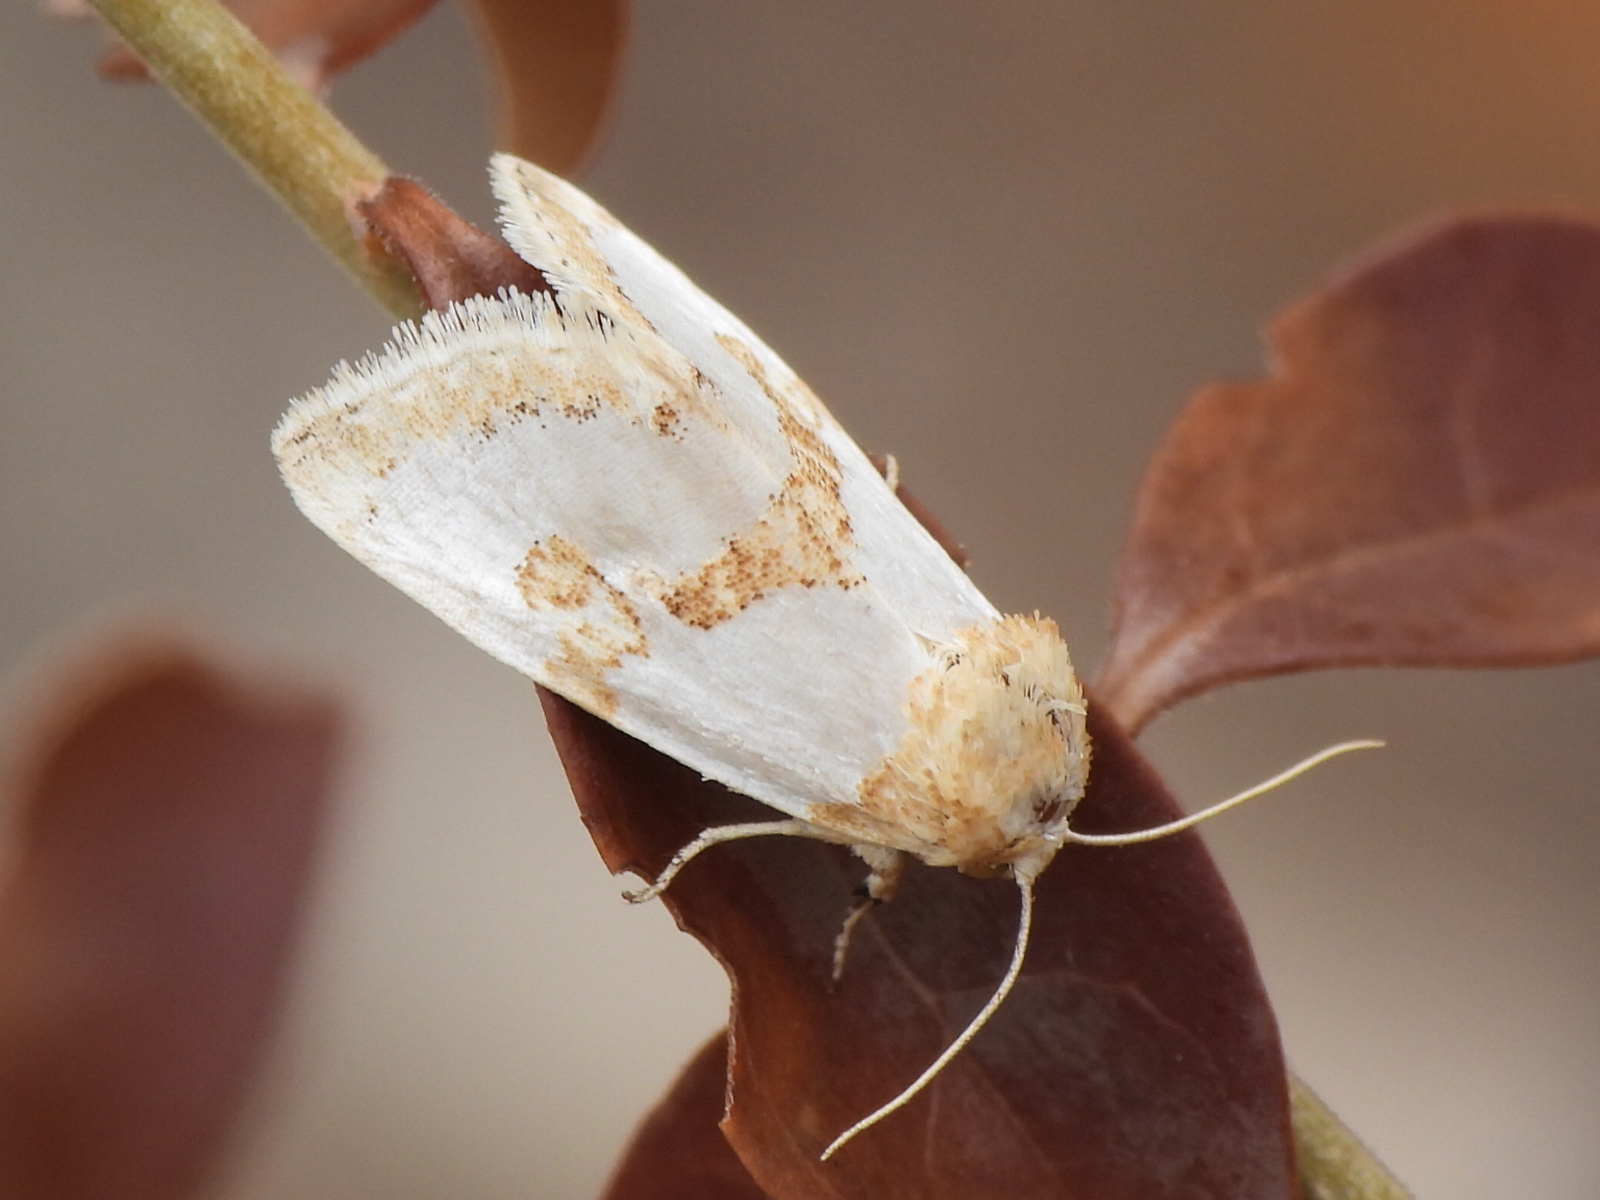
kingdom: Animalia
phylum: Arthropoda
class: Insecta
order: Lepidoptera
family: Noctuidae
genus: Schinia
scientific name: Schinia chrysellus
